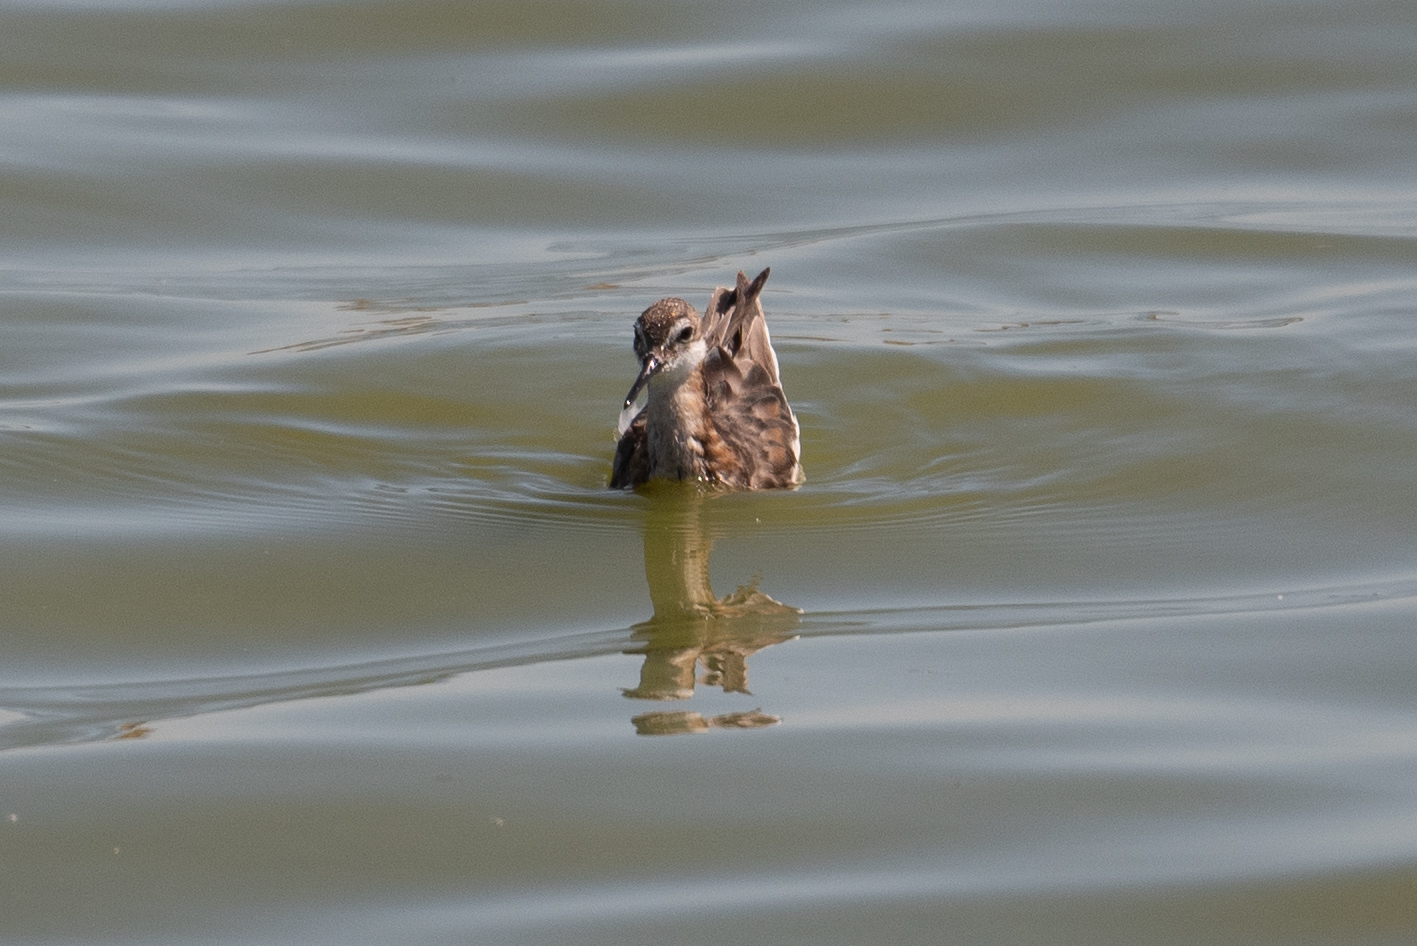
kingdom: Animalia
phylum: Chordata
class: Aves
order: Charadriiformes
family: Scolopacidae
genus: Phalaropus
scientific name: Phalaropus tricolor
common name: Wilson's phalarope
